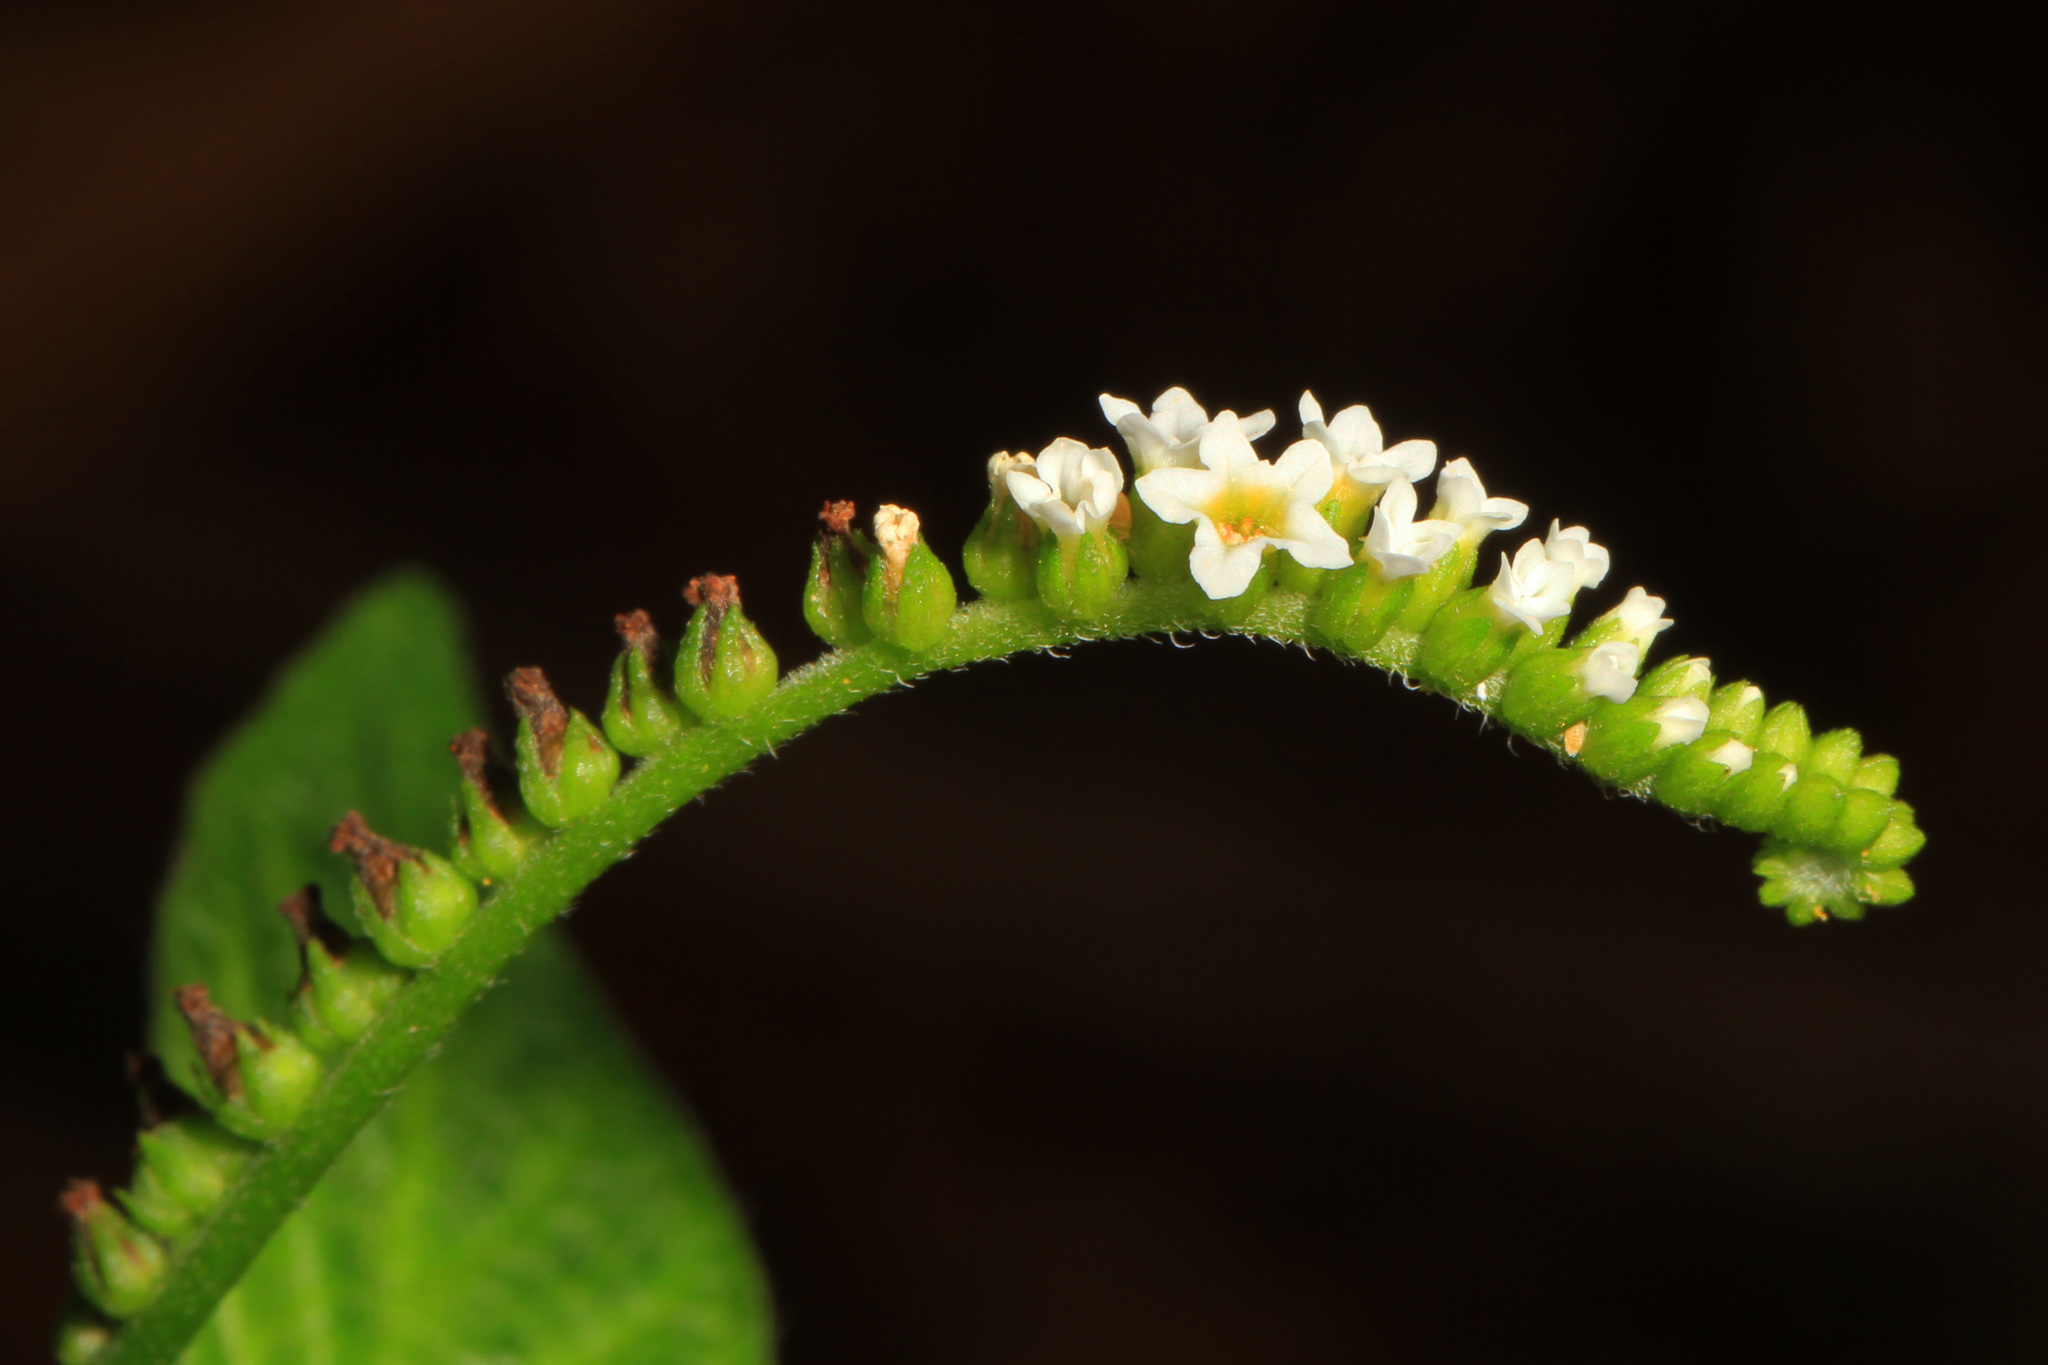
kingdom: Plantae
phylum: Tracheophyta
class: Magnoliopsida
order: Boraginales
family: Heliotropiaceae
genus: Heliotropium
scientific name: Heliotropium angiospermum
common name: Eye bright
